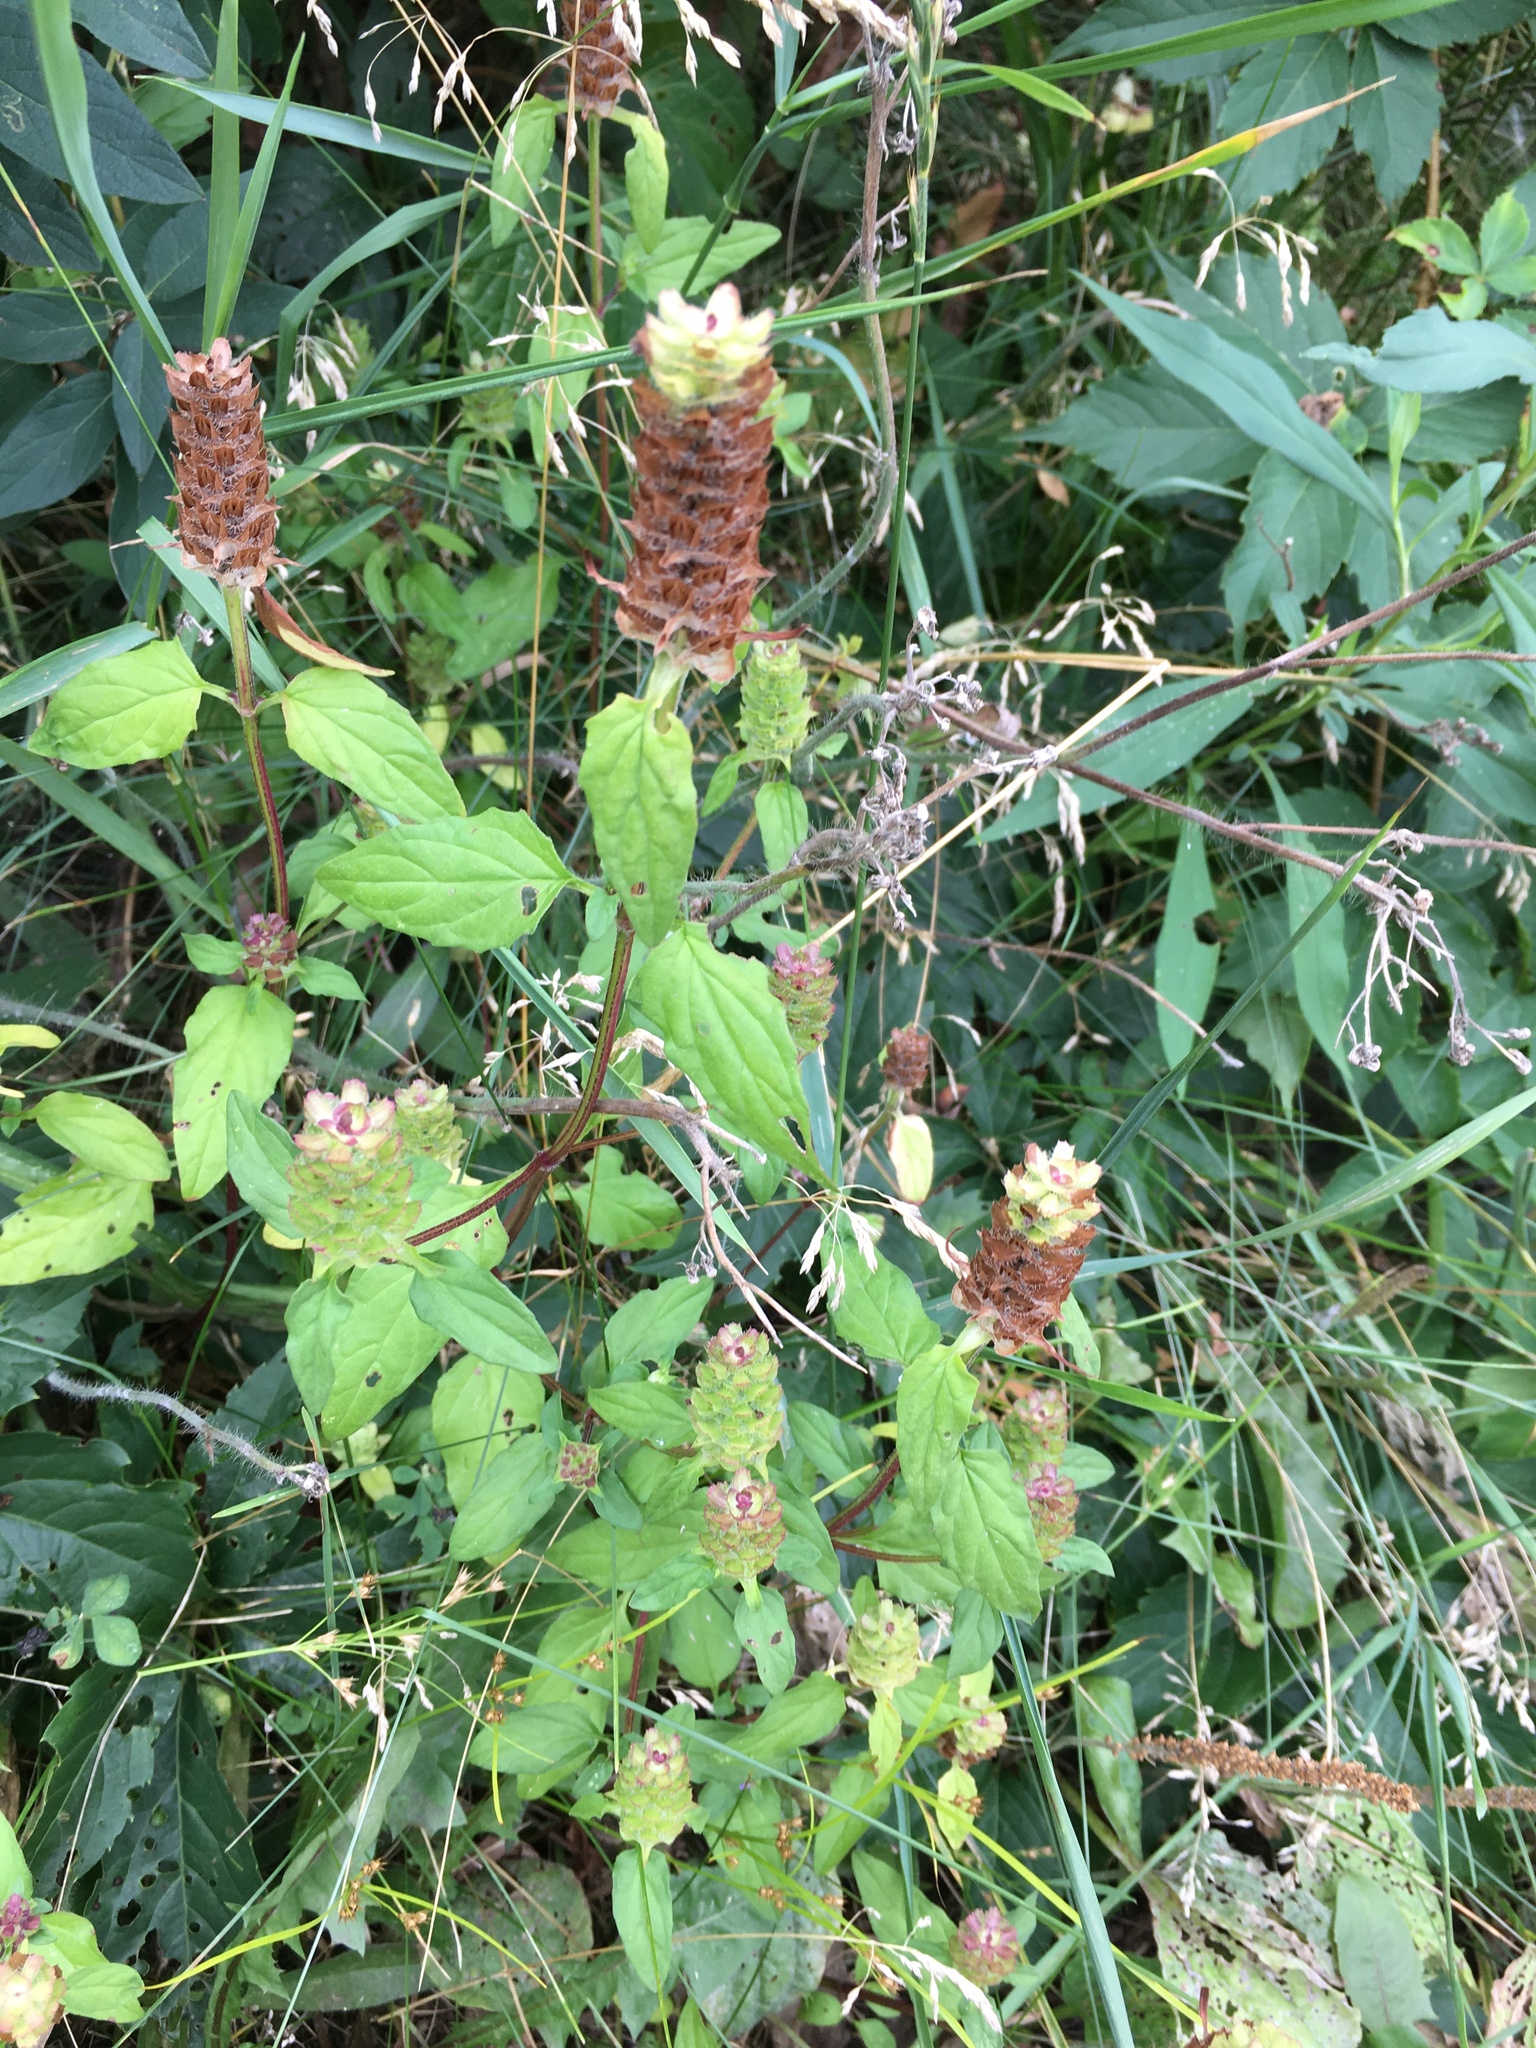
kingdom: Plantae
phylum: Tracheophyta
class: Magnoliopsida
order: Lamiales
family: Lamiaceae
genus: Prunella
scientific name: Prunella vulgaris
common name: Heal-all
